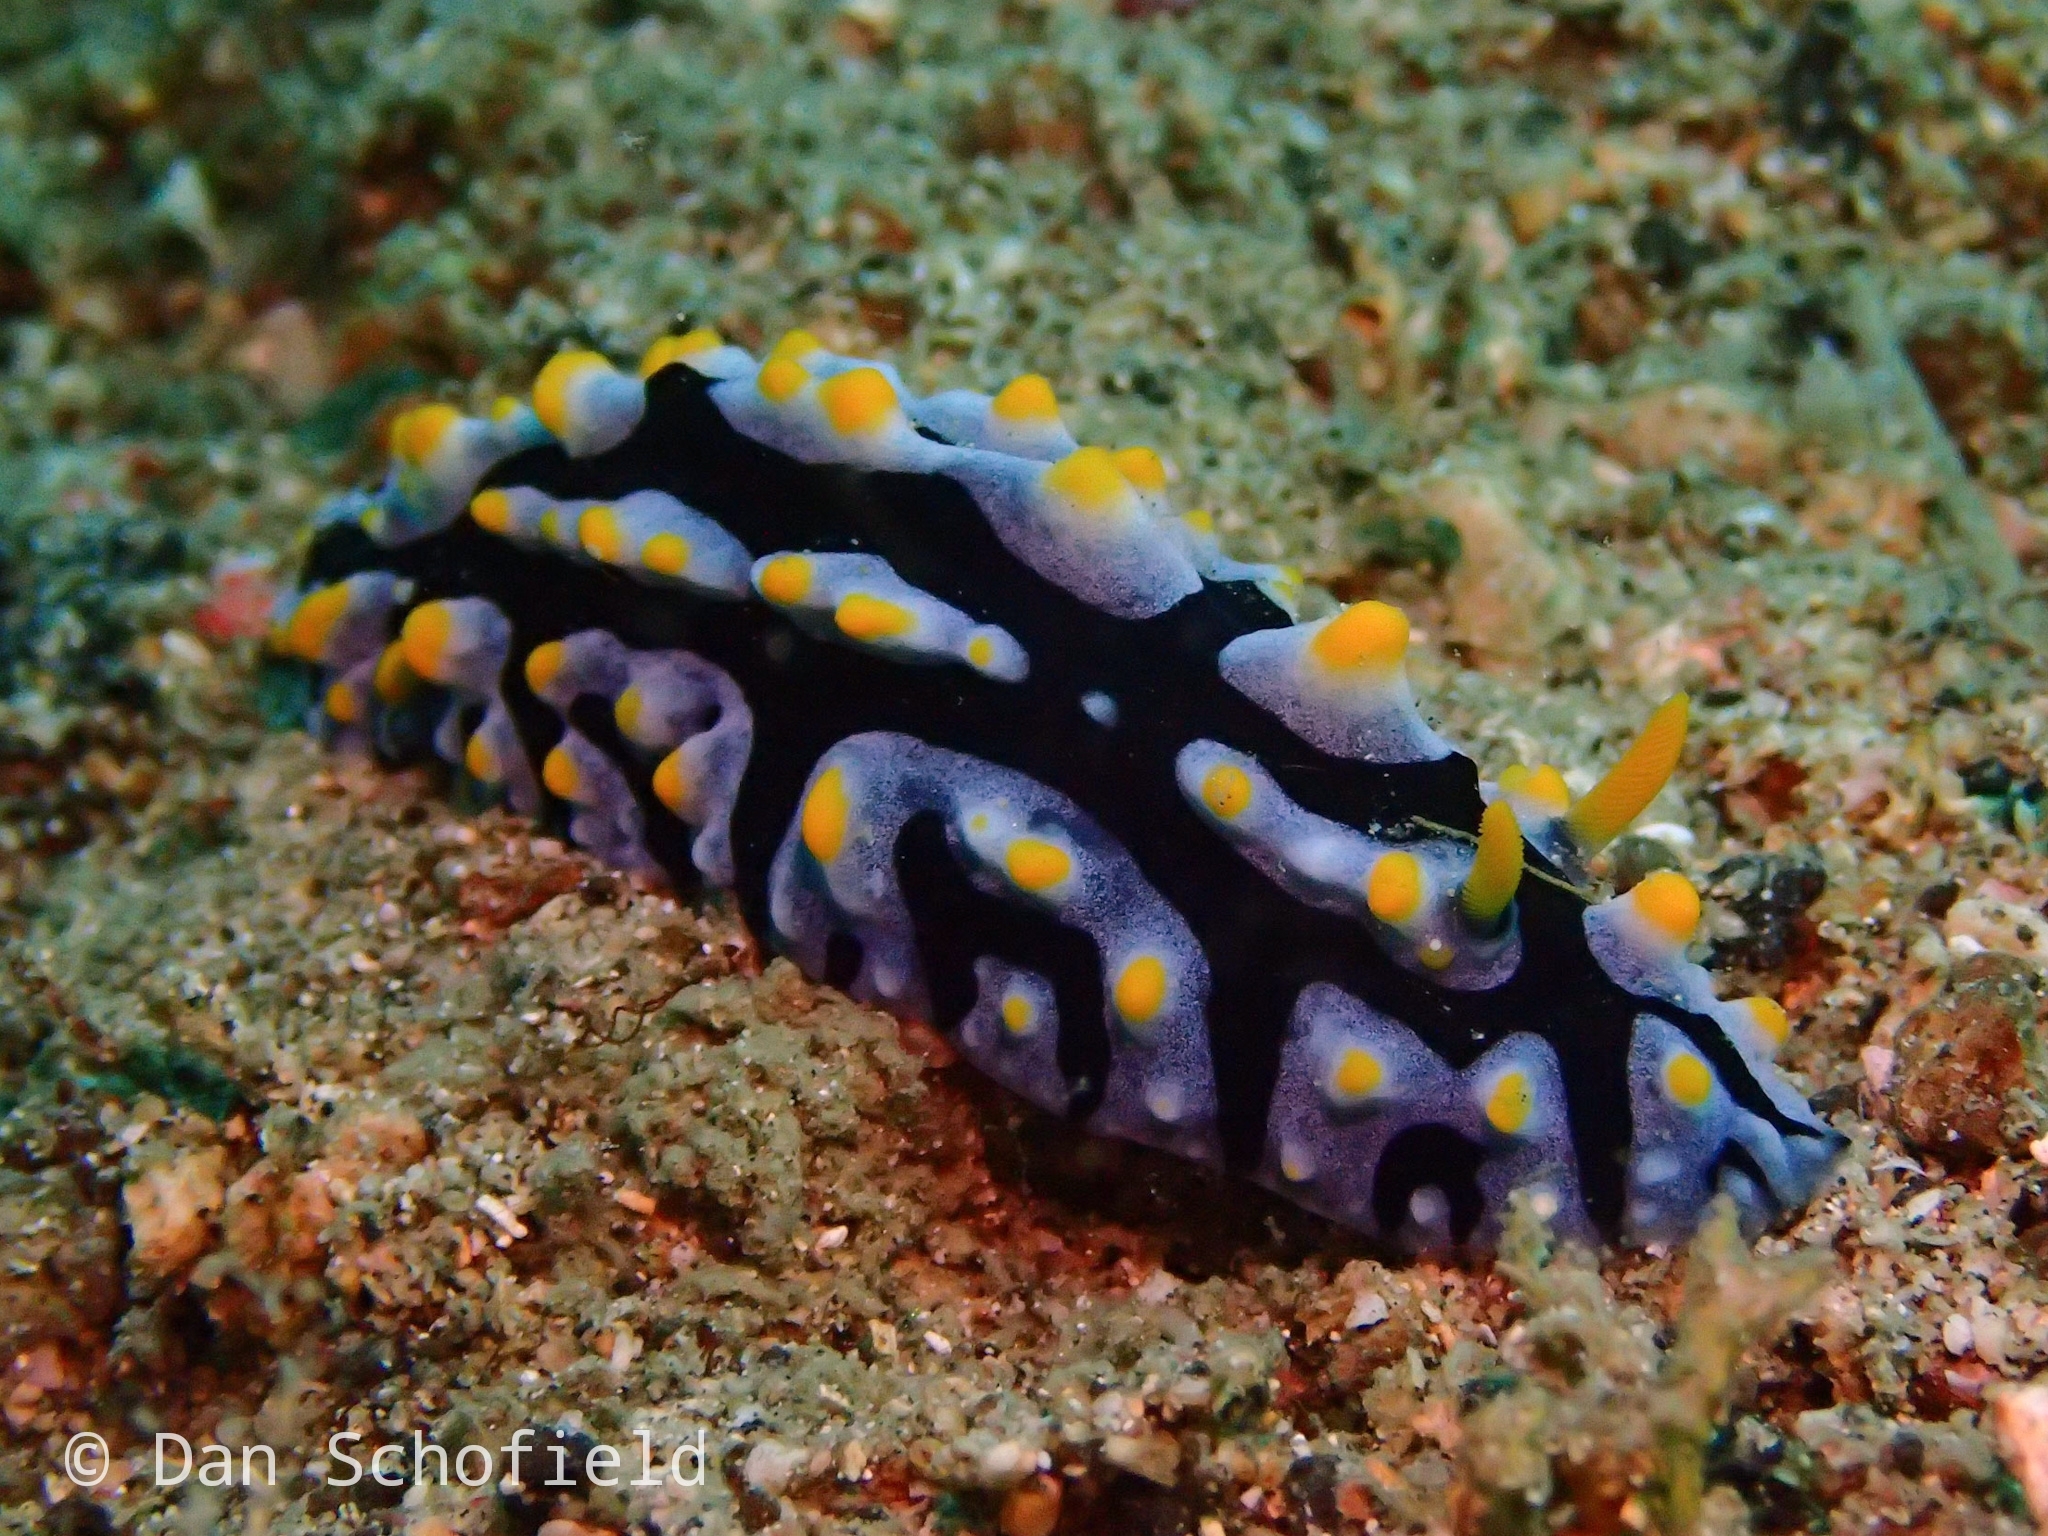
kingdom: Animalia
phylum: Mollusca
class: Gastropoda
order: Nudibranchia
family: Phyllidiidae
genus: Phyllidia
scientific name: Phyllidia varicosa
